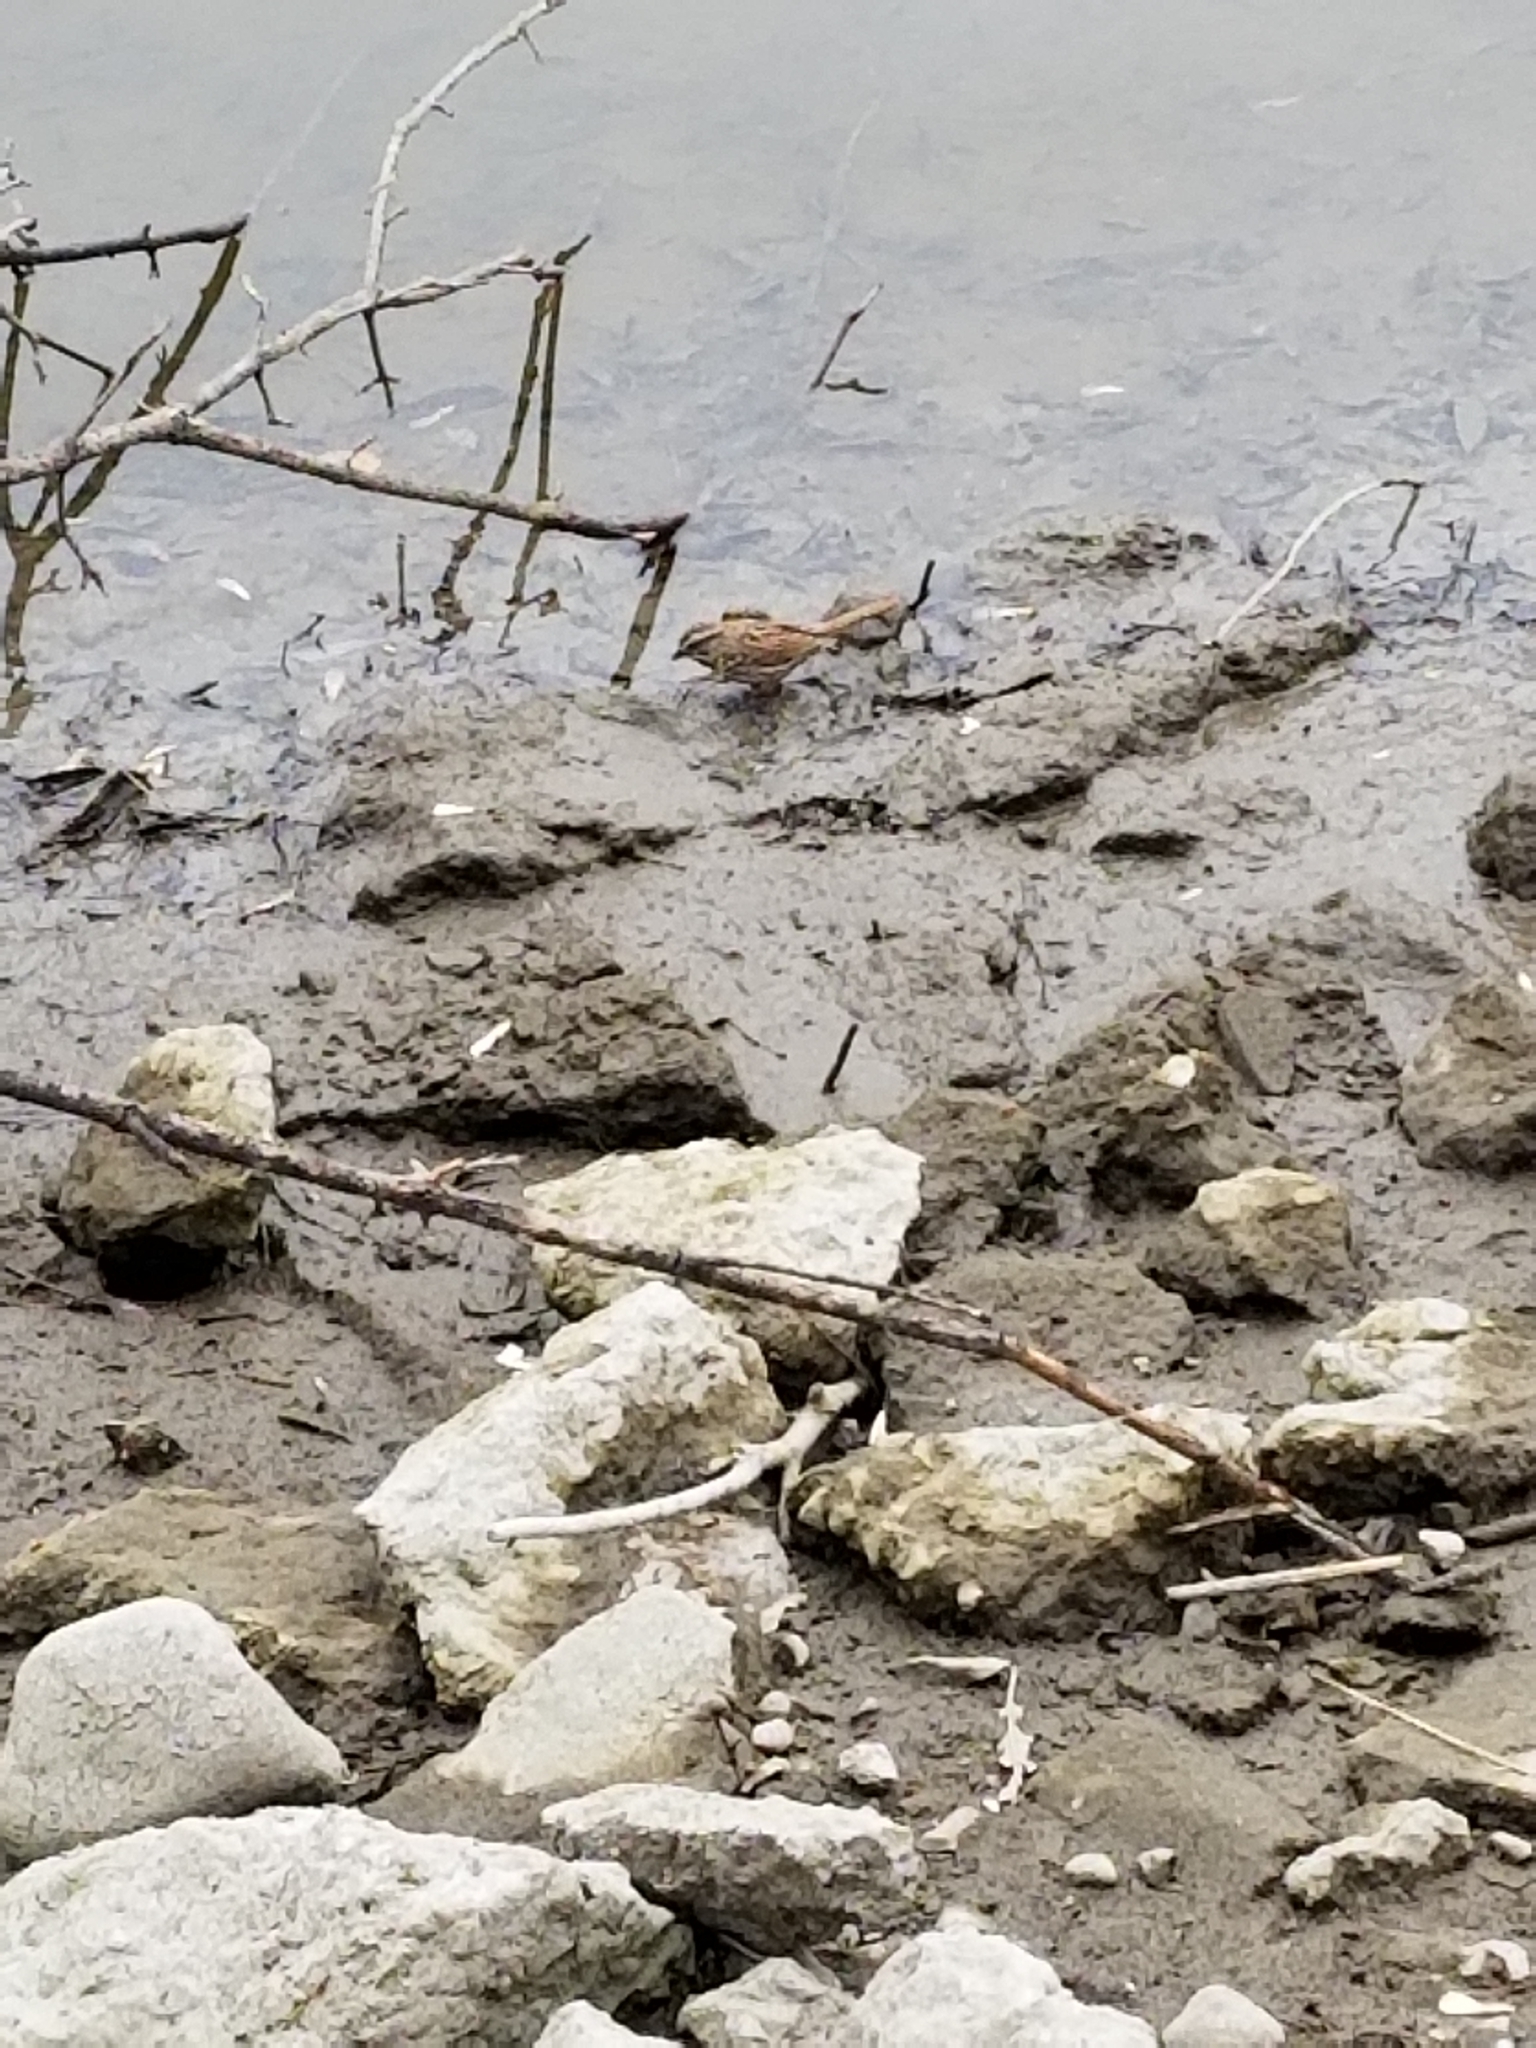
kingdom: Animalia
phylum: Chordata
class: Aves
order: Passeriformes
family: Passerellidae
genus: Melospiza
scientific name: Melospiza melodia
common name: Song sparrow
